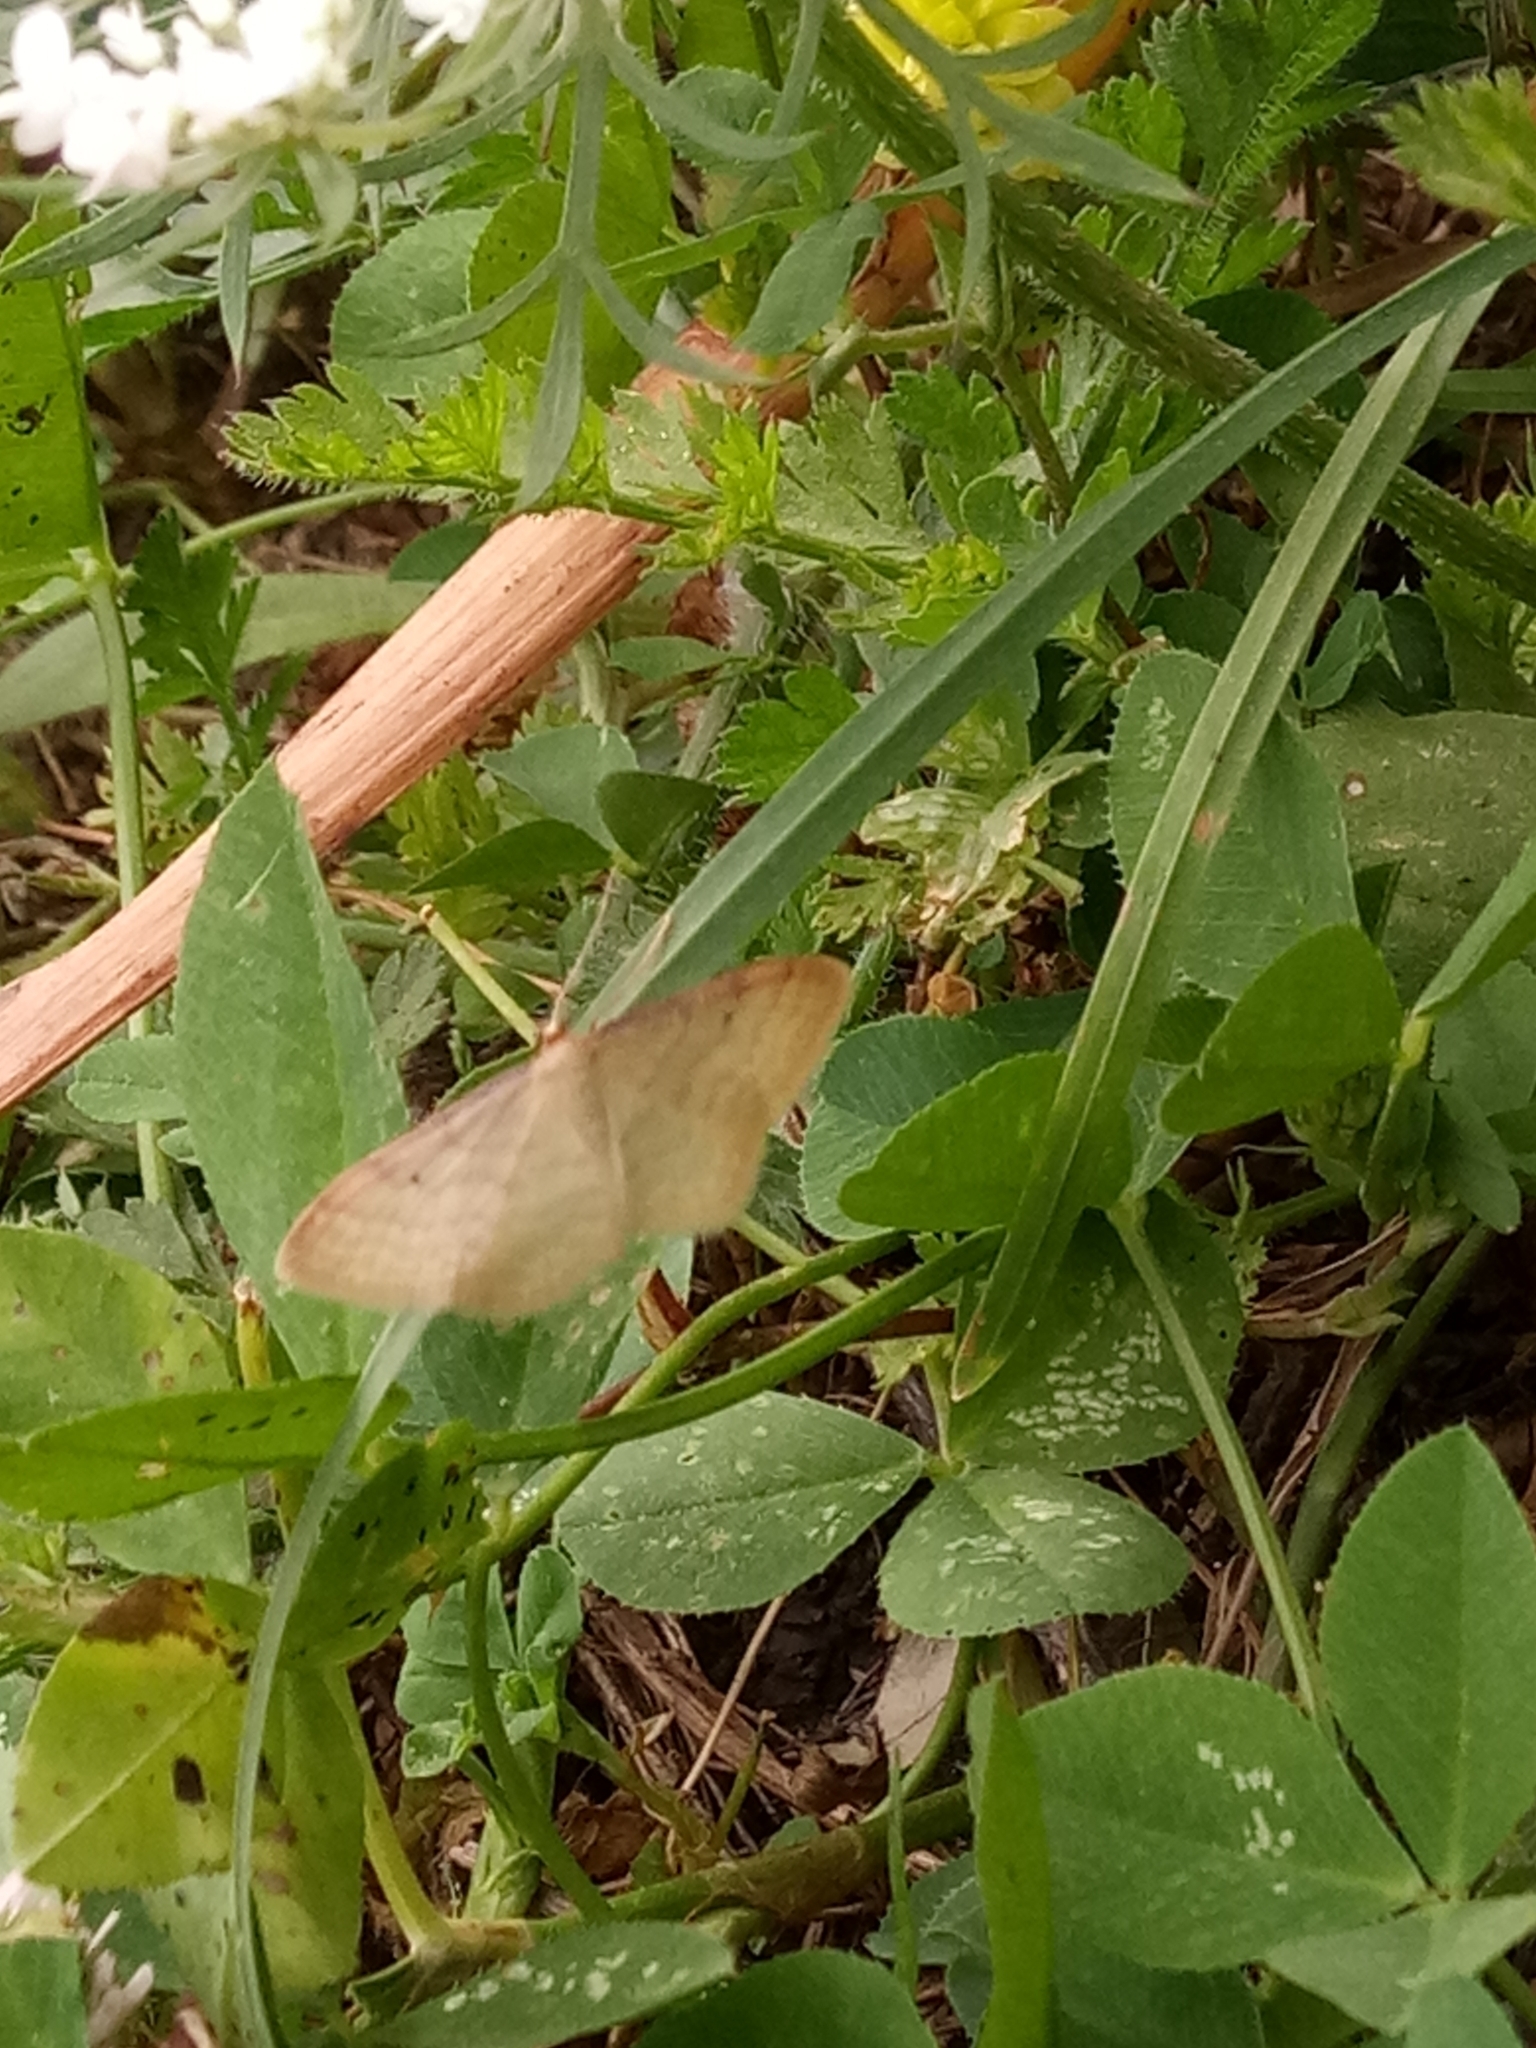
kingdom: Animalia
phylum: Arthropoda
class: Insecta
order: Lepidoptera
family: Geometridae
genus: Idaea
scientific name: Idaea bigladiata
